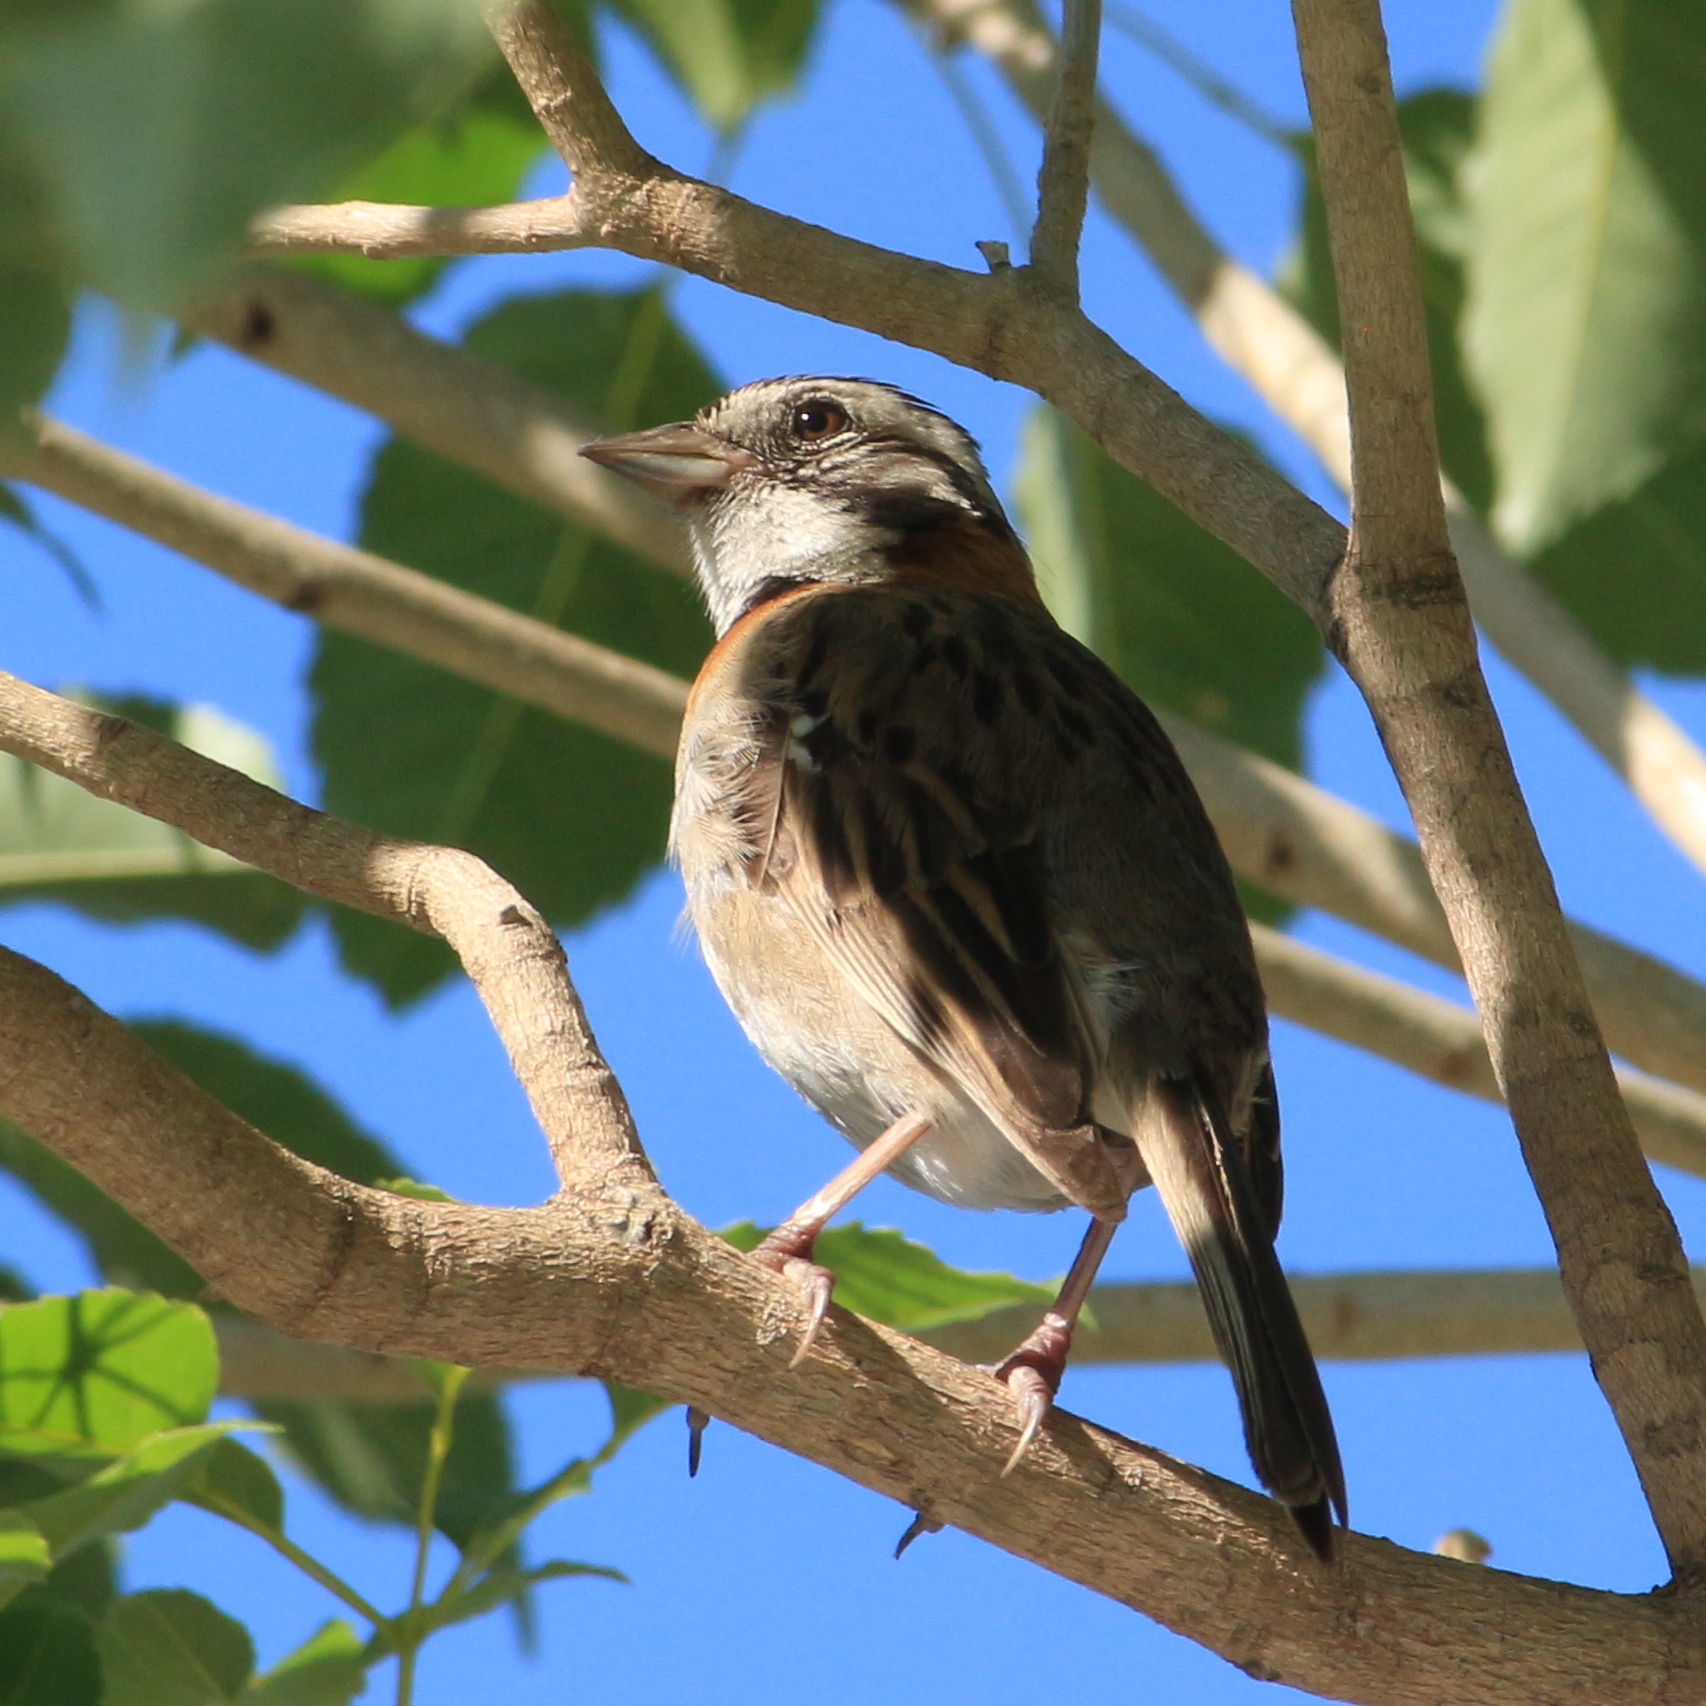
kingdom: Animalia
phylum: Chordata
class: Aves
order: Passeriformes
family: Passerellidae
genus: Zonotrichia
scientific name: Zonotrichia capensis
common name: Rufous-collared sparrow
